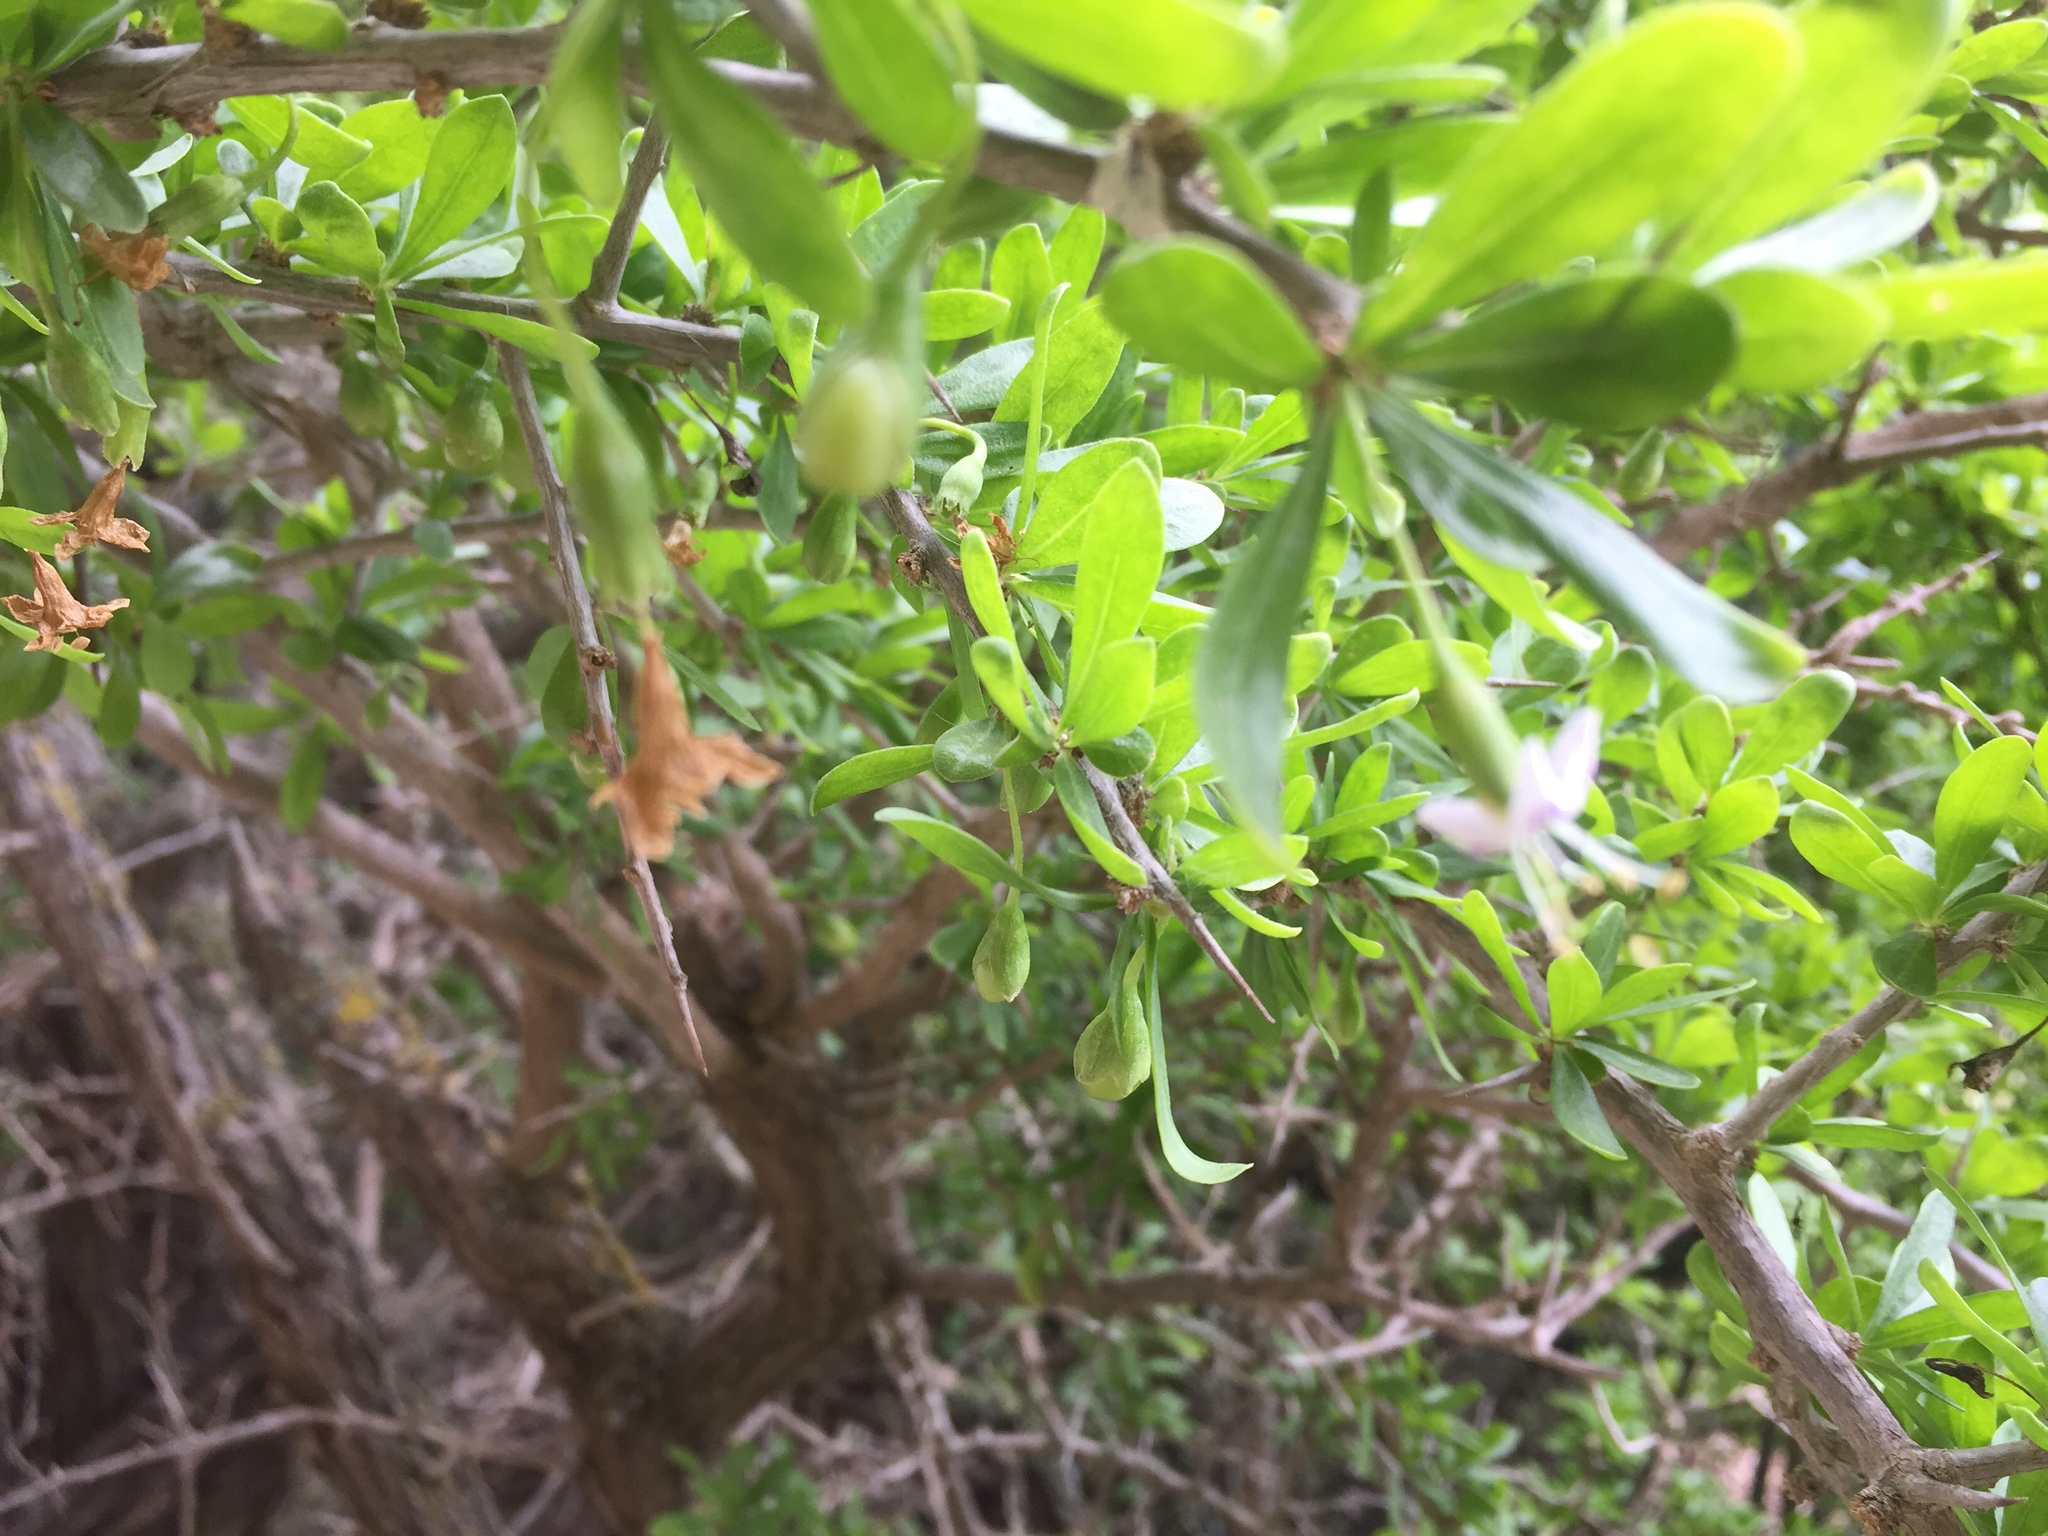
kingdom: Plantae
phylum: Tracheophyta
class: Magnoliopsida
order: Solanales
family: Solanaceae
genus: Lycium
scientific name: Lycium ferocissimum
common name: African boxthorn
